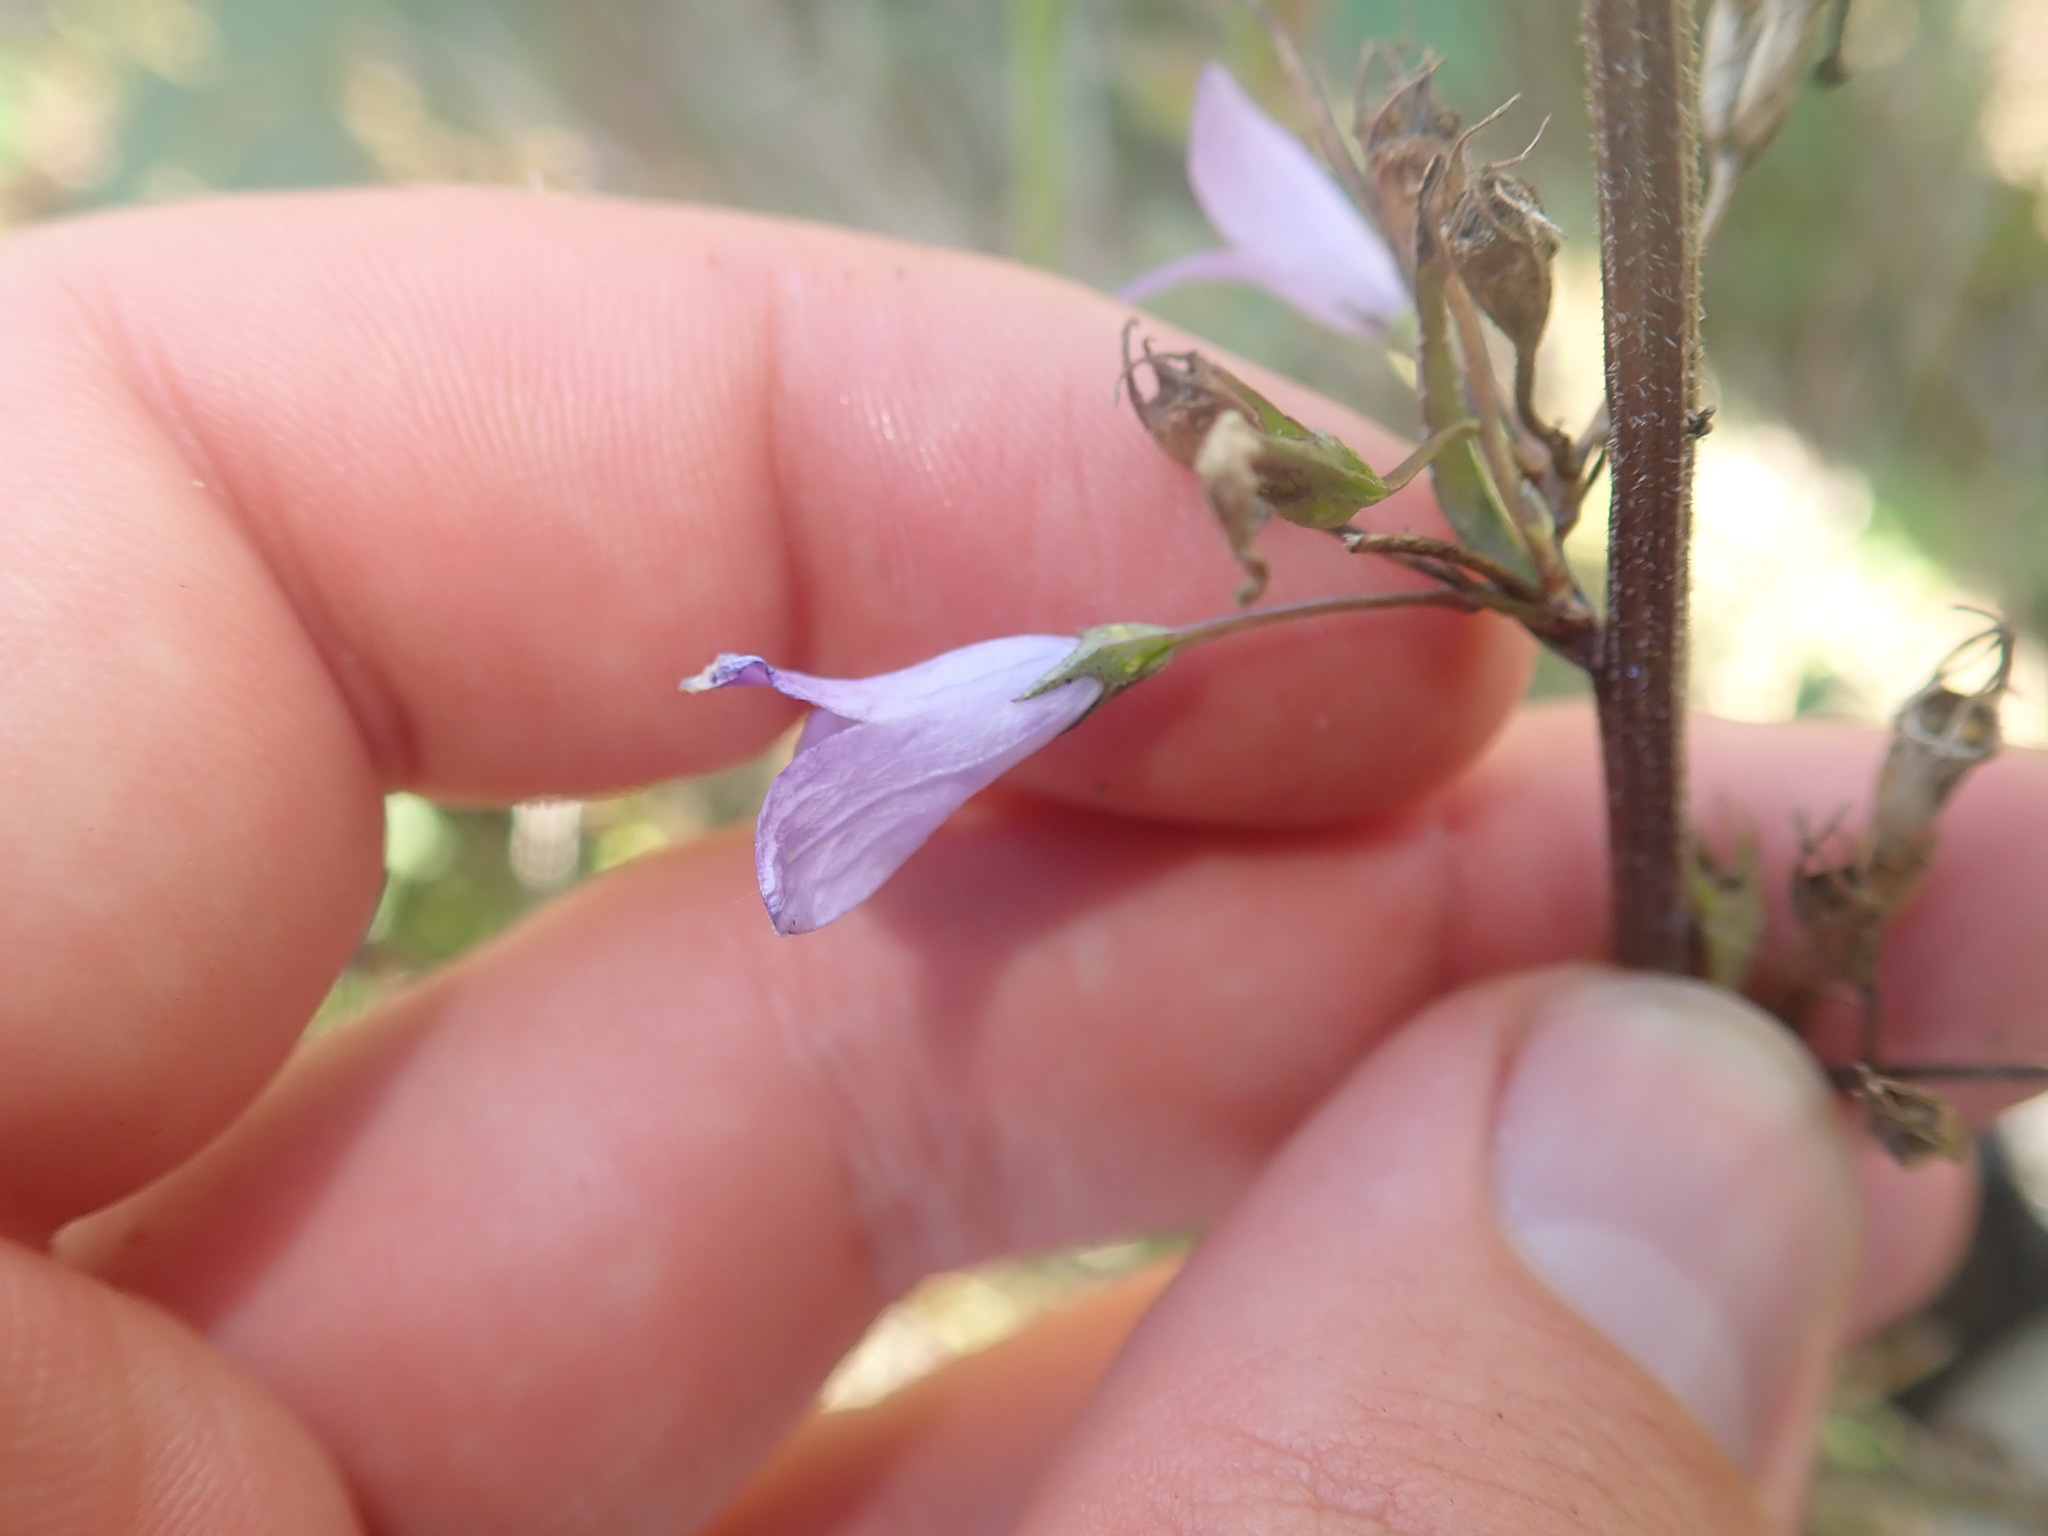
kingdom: Plantae
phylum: Tracheophyta
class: Magnoliopsida
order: Asterales
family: Campanulaceae
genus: Campanula
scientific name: Campanula rapunculus
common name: Rampion bellflower
